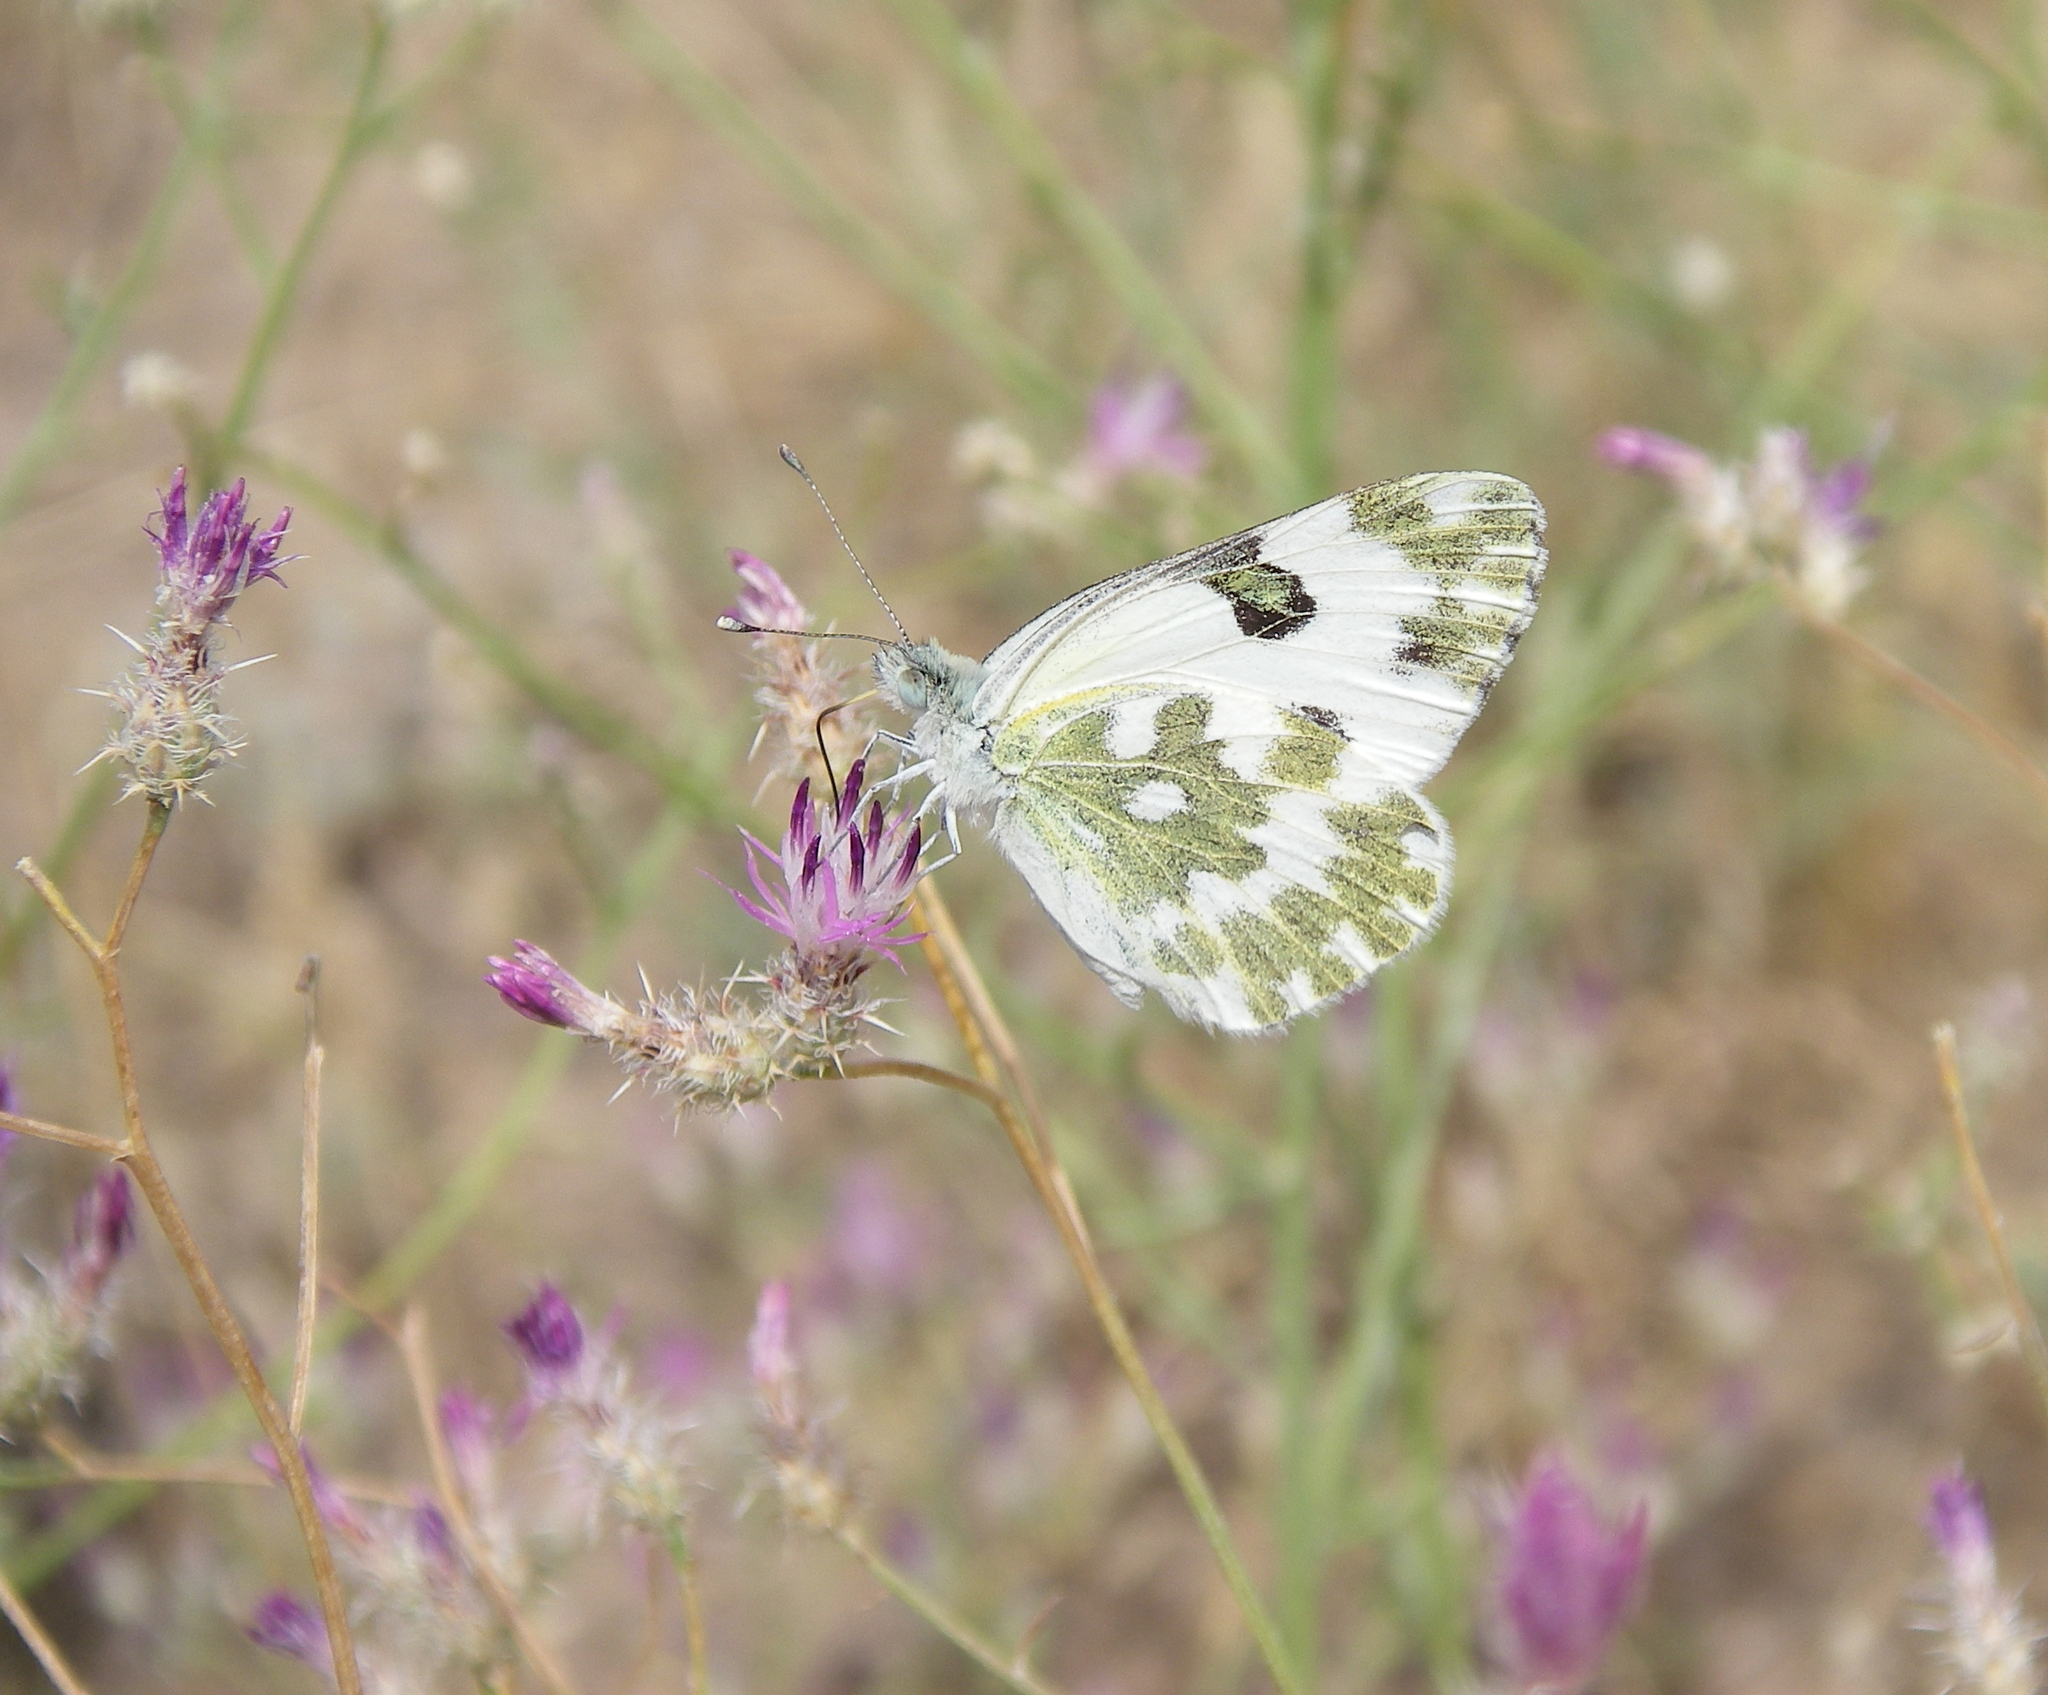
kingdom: Plantae
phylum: Tracheophyta
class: Magnoliopsida
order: Asterales
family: Asteraceae
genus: Centaurea
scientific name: Centaurea virgata
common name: Squarrose knapweed
